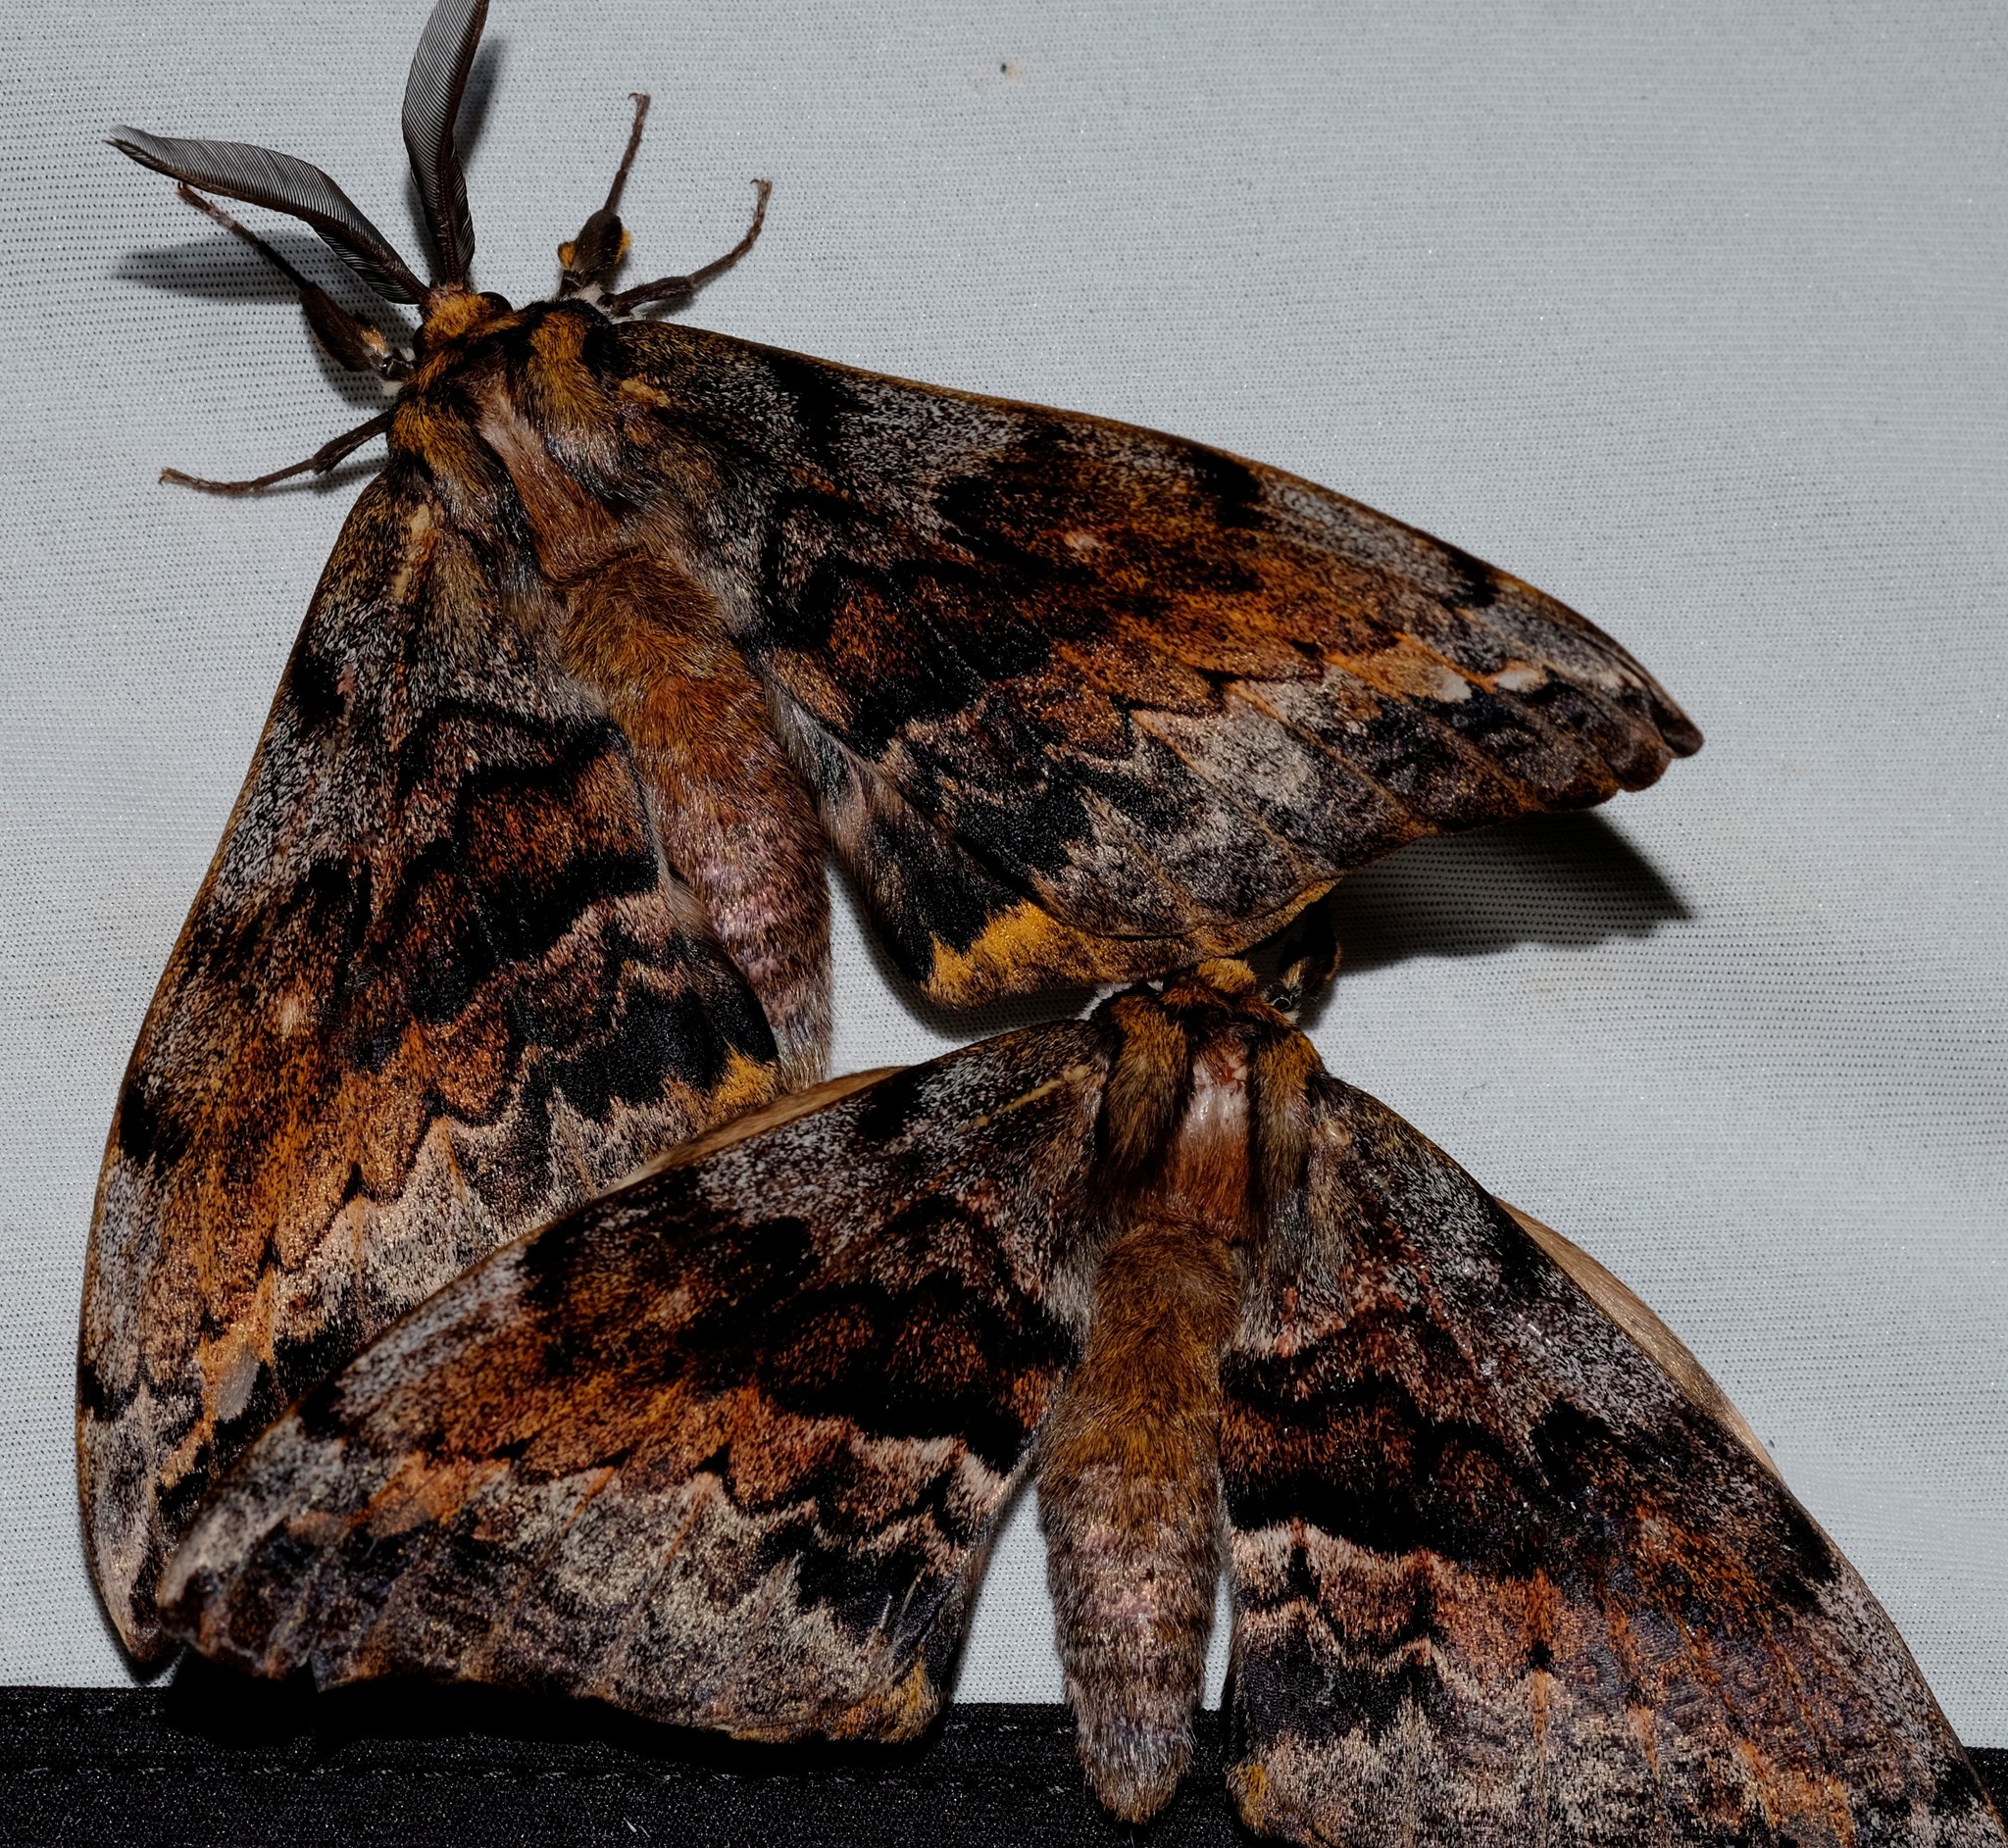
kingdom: Animalia
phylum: Arthropoda
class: Insecta
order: Lepidoptera
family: Anthelidae
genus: Chelepteryx
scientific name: Chelepteryx collesi
